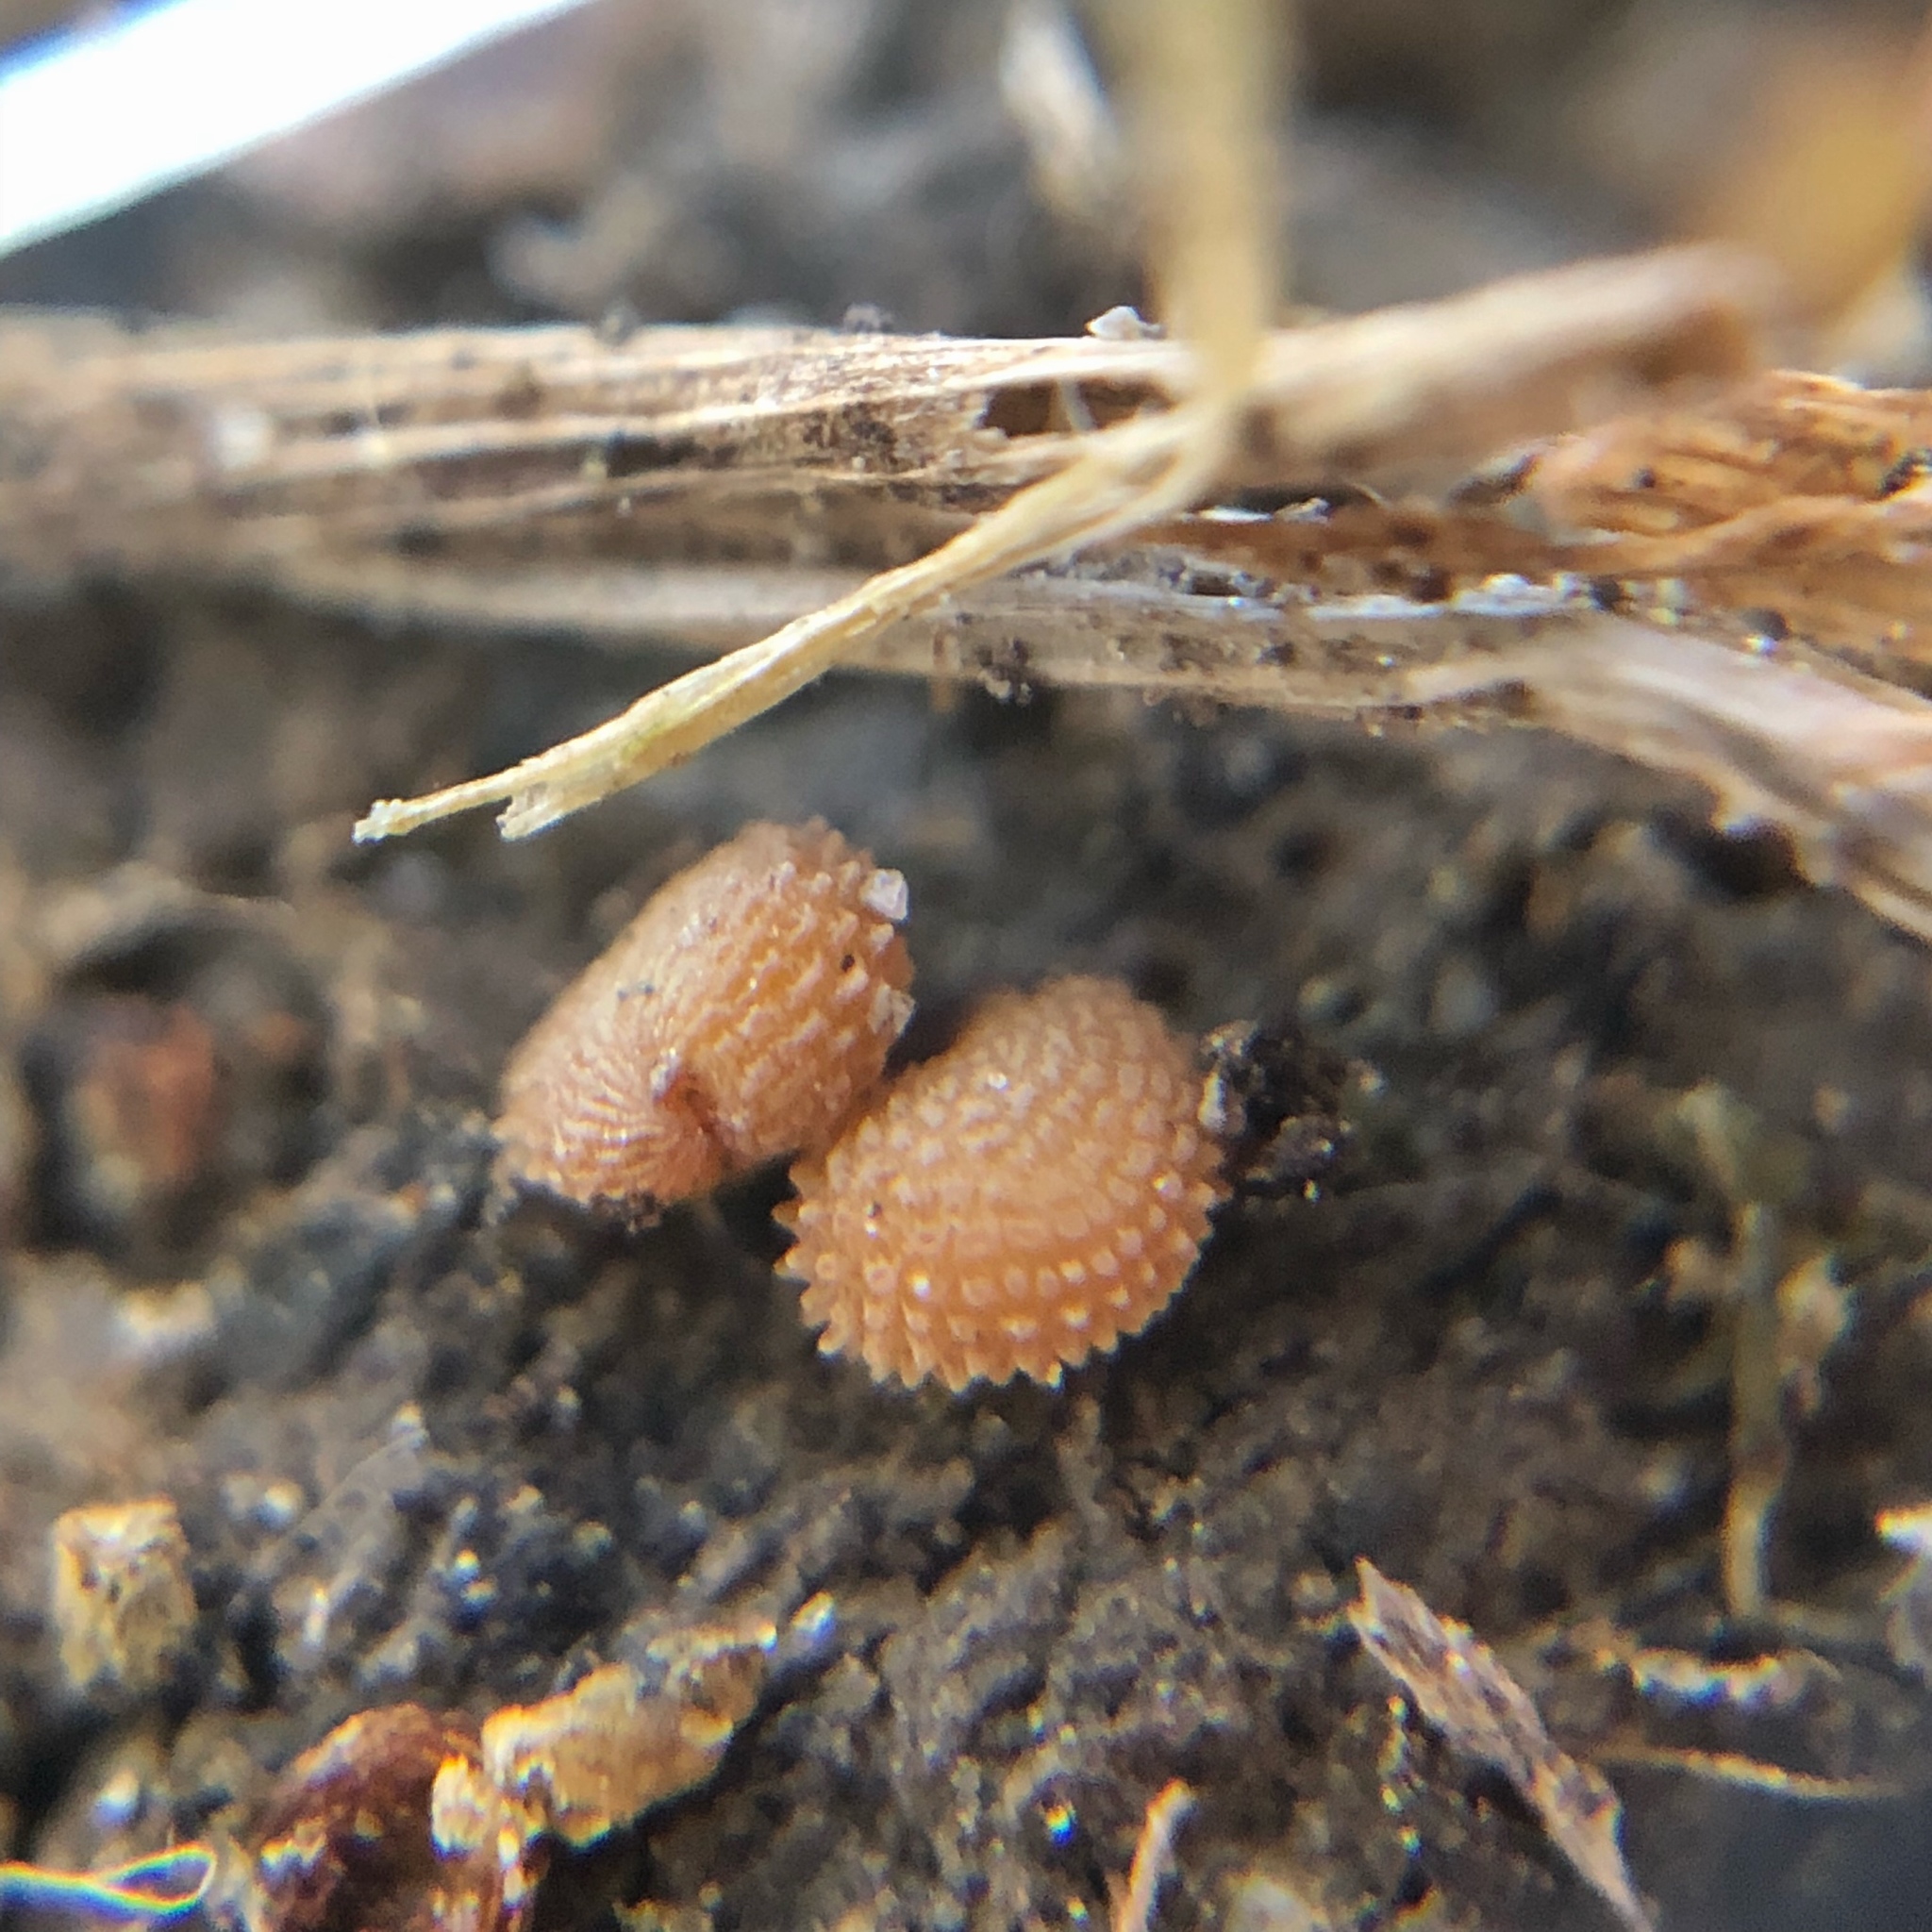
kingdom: Plantae
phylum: Tracheophyta
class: Magnoliopsida
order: Caryophyllales
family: Caryophyllaceae
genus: Stellaria
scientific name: Stellaria media
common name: Common chickweed
